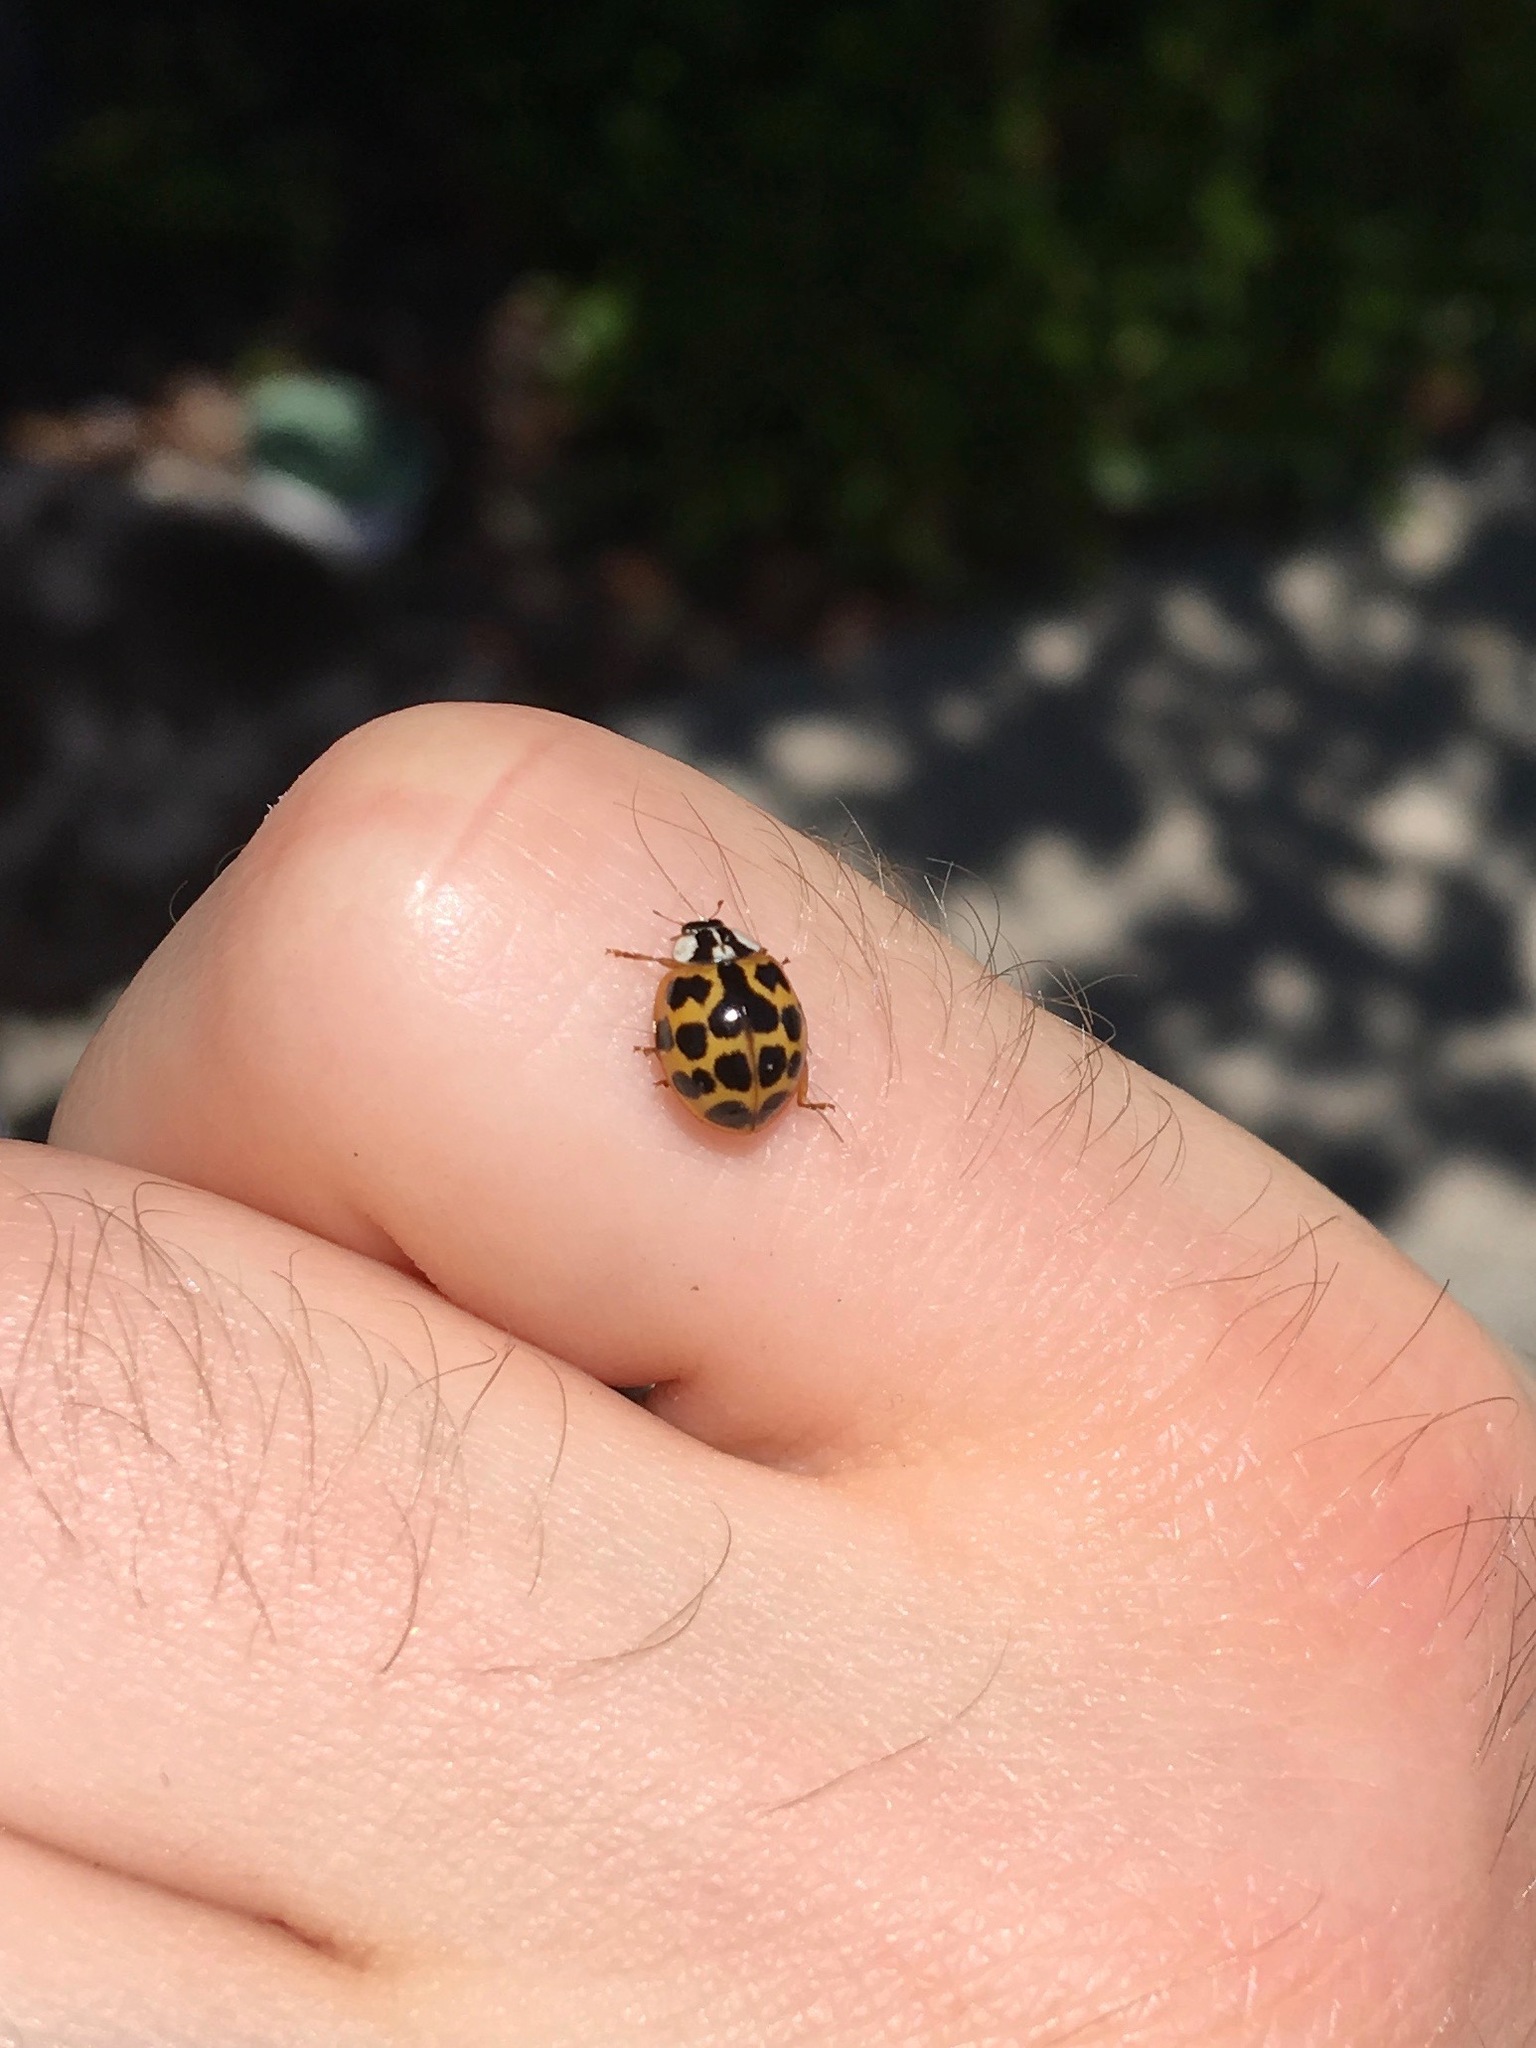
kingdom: Animalia
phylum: Arthropoda
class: Insecta
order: Coleoptera
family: Coccinellidae
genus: Harmonia
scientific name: Harmonia axyridis
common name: Harlequin ladybird
